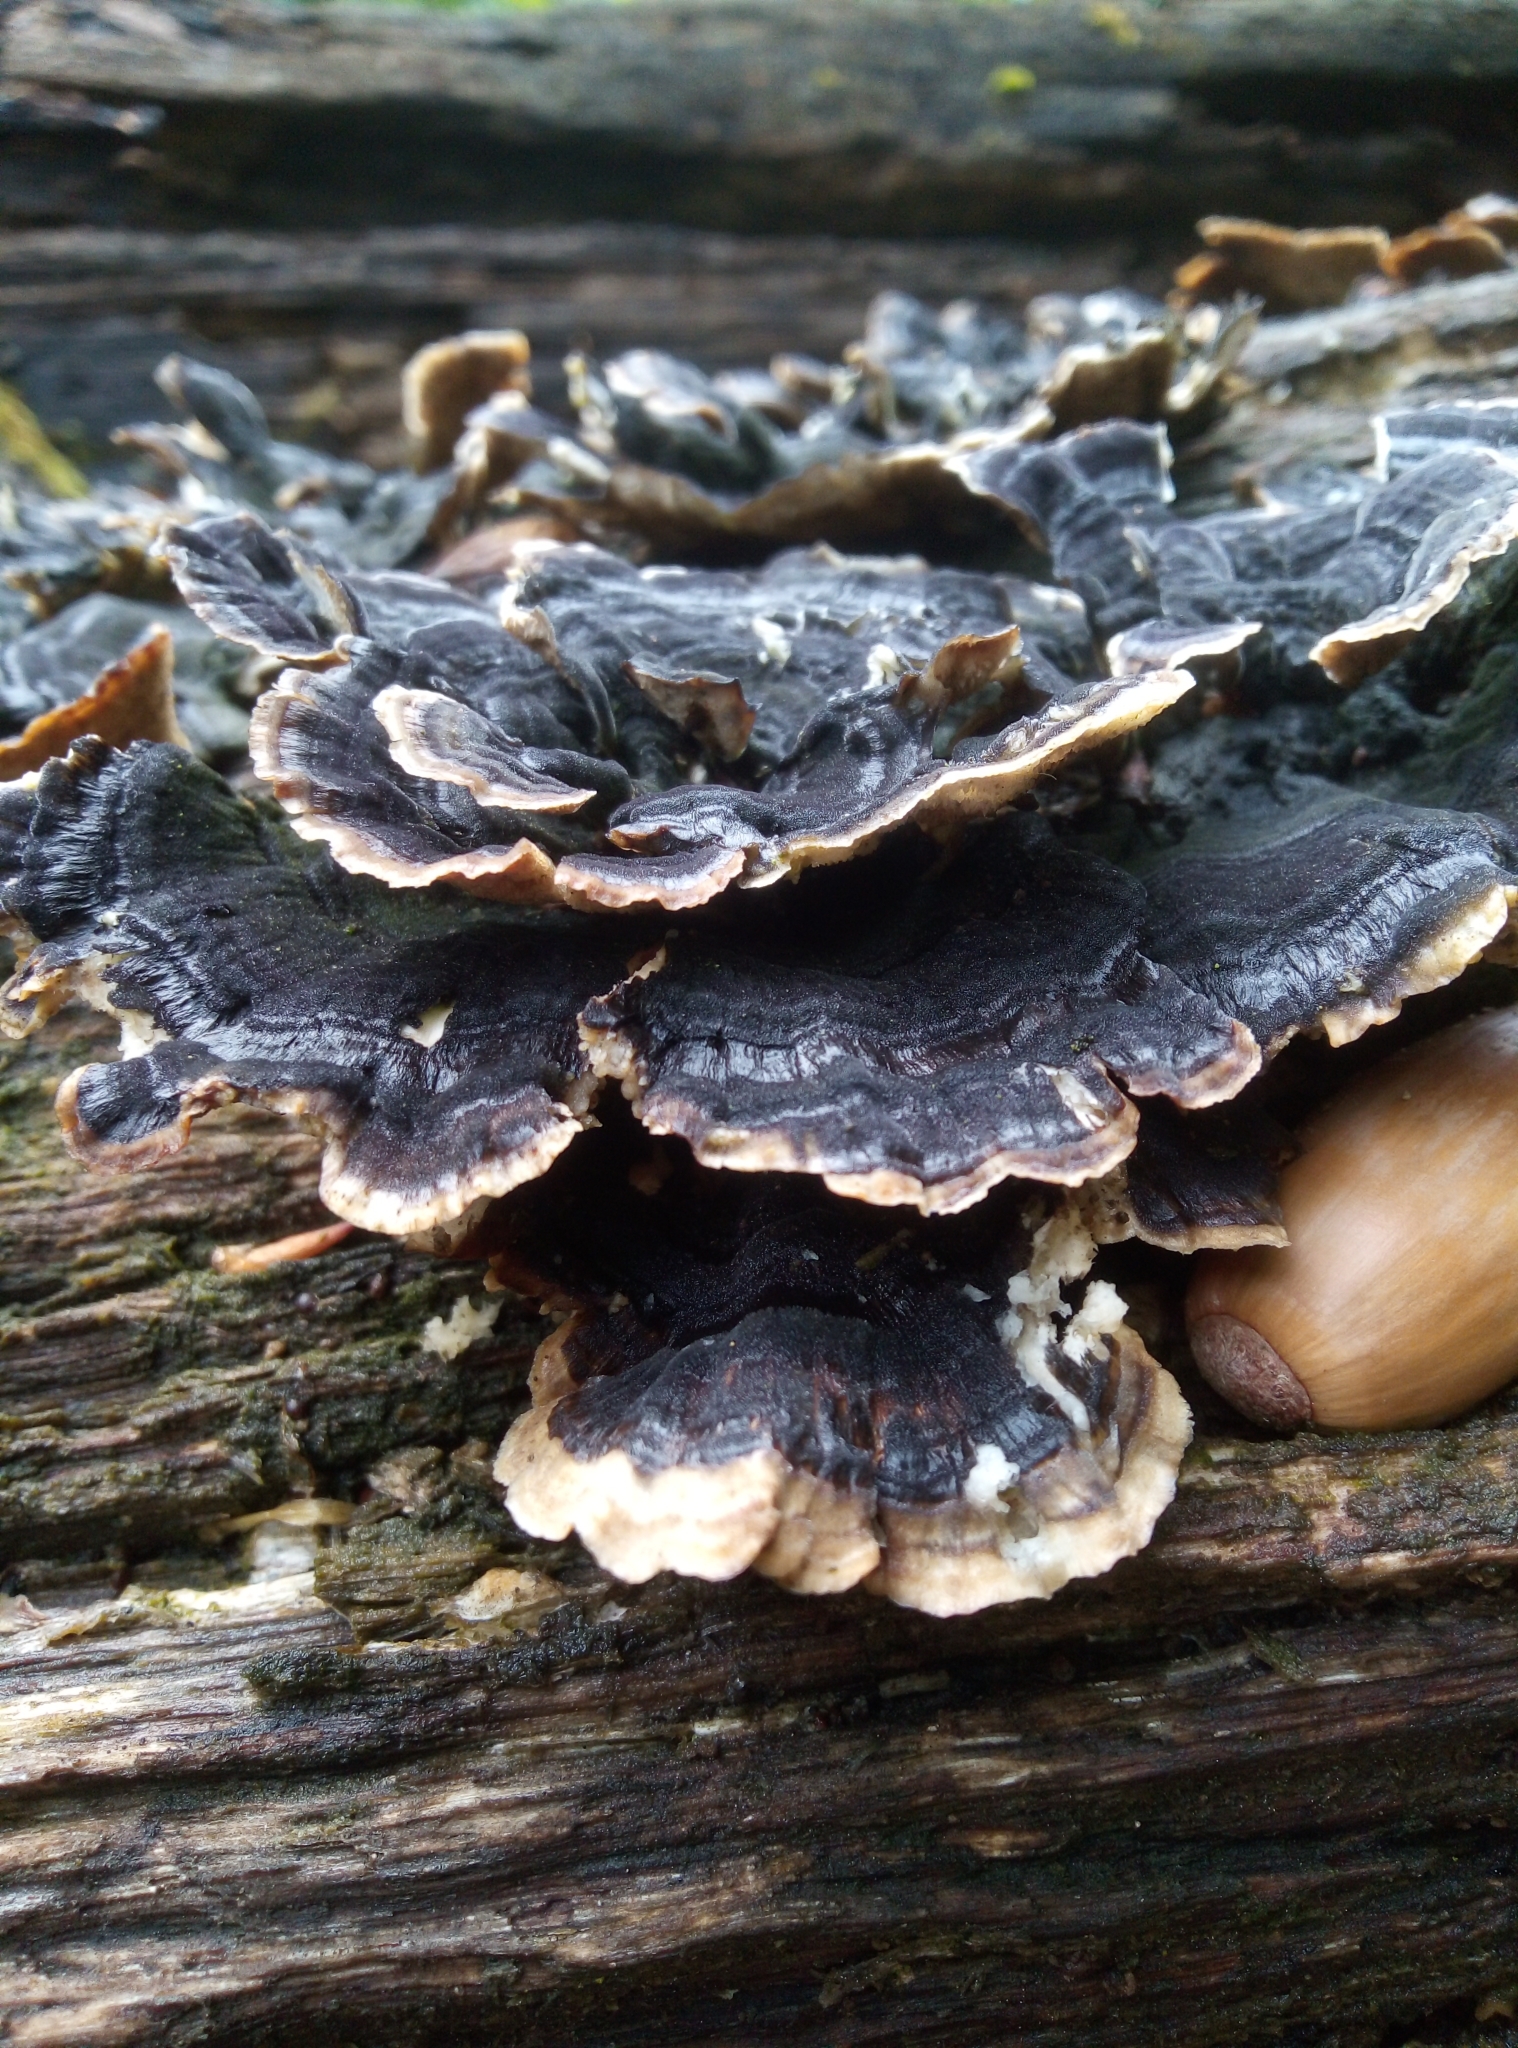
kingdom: Fungi
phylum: Basidiomycota
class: Agaricomycetes
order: Polyporales
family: Polyporaceae
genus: Trametes
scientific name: Trametes versicolor
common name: Turkeytail
